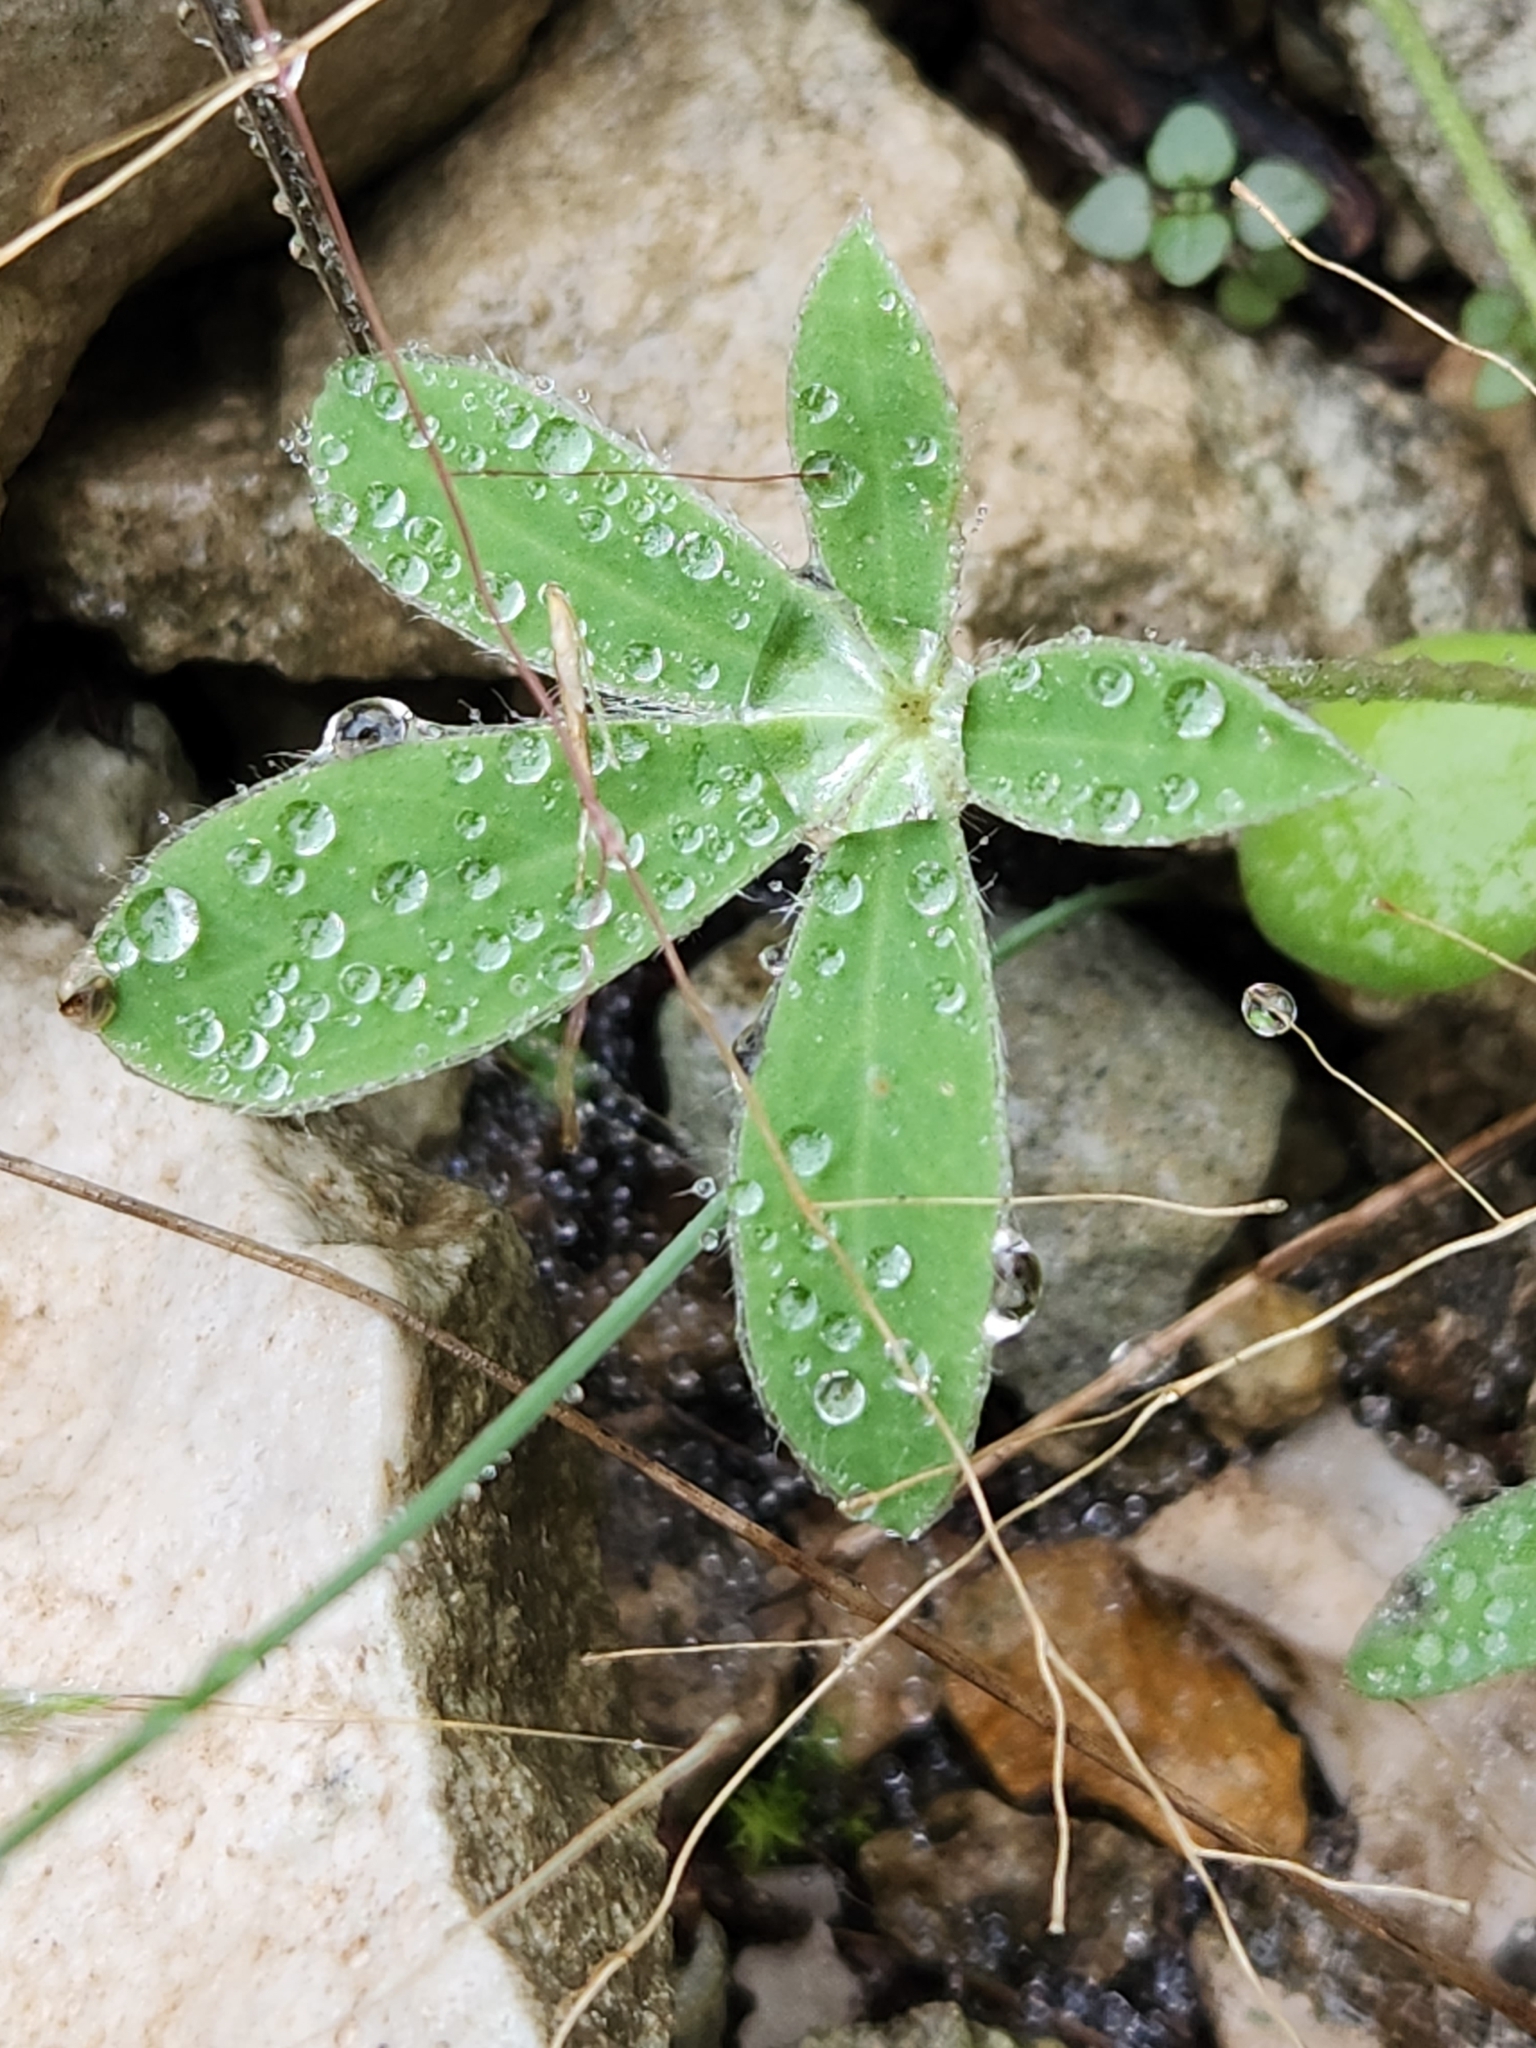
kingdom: Plantae
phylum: Tracheophyta
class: Magnoliopsida
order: Fabales
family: Fabaceae
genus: Lupinus
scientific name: Lupinus texensis
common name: Texas bluebonnet
